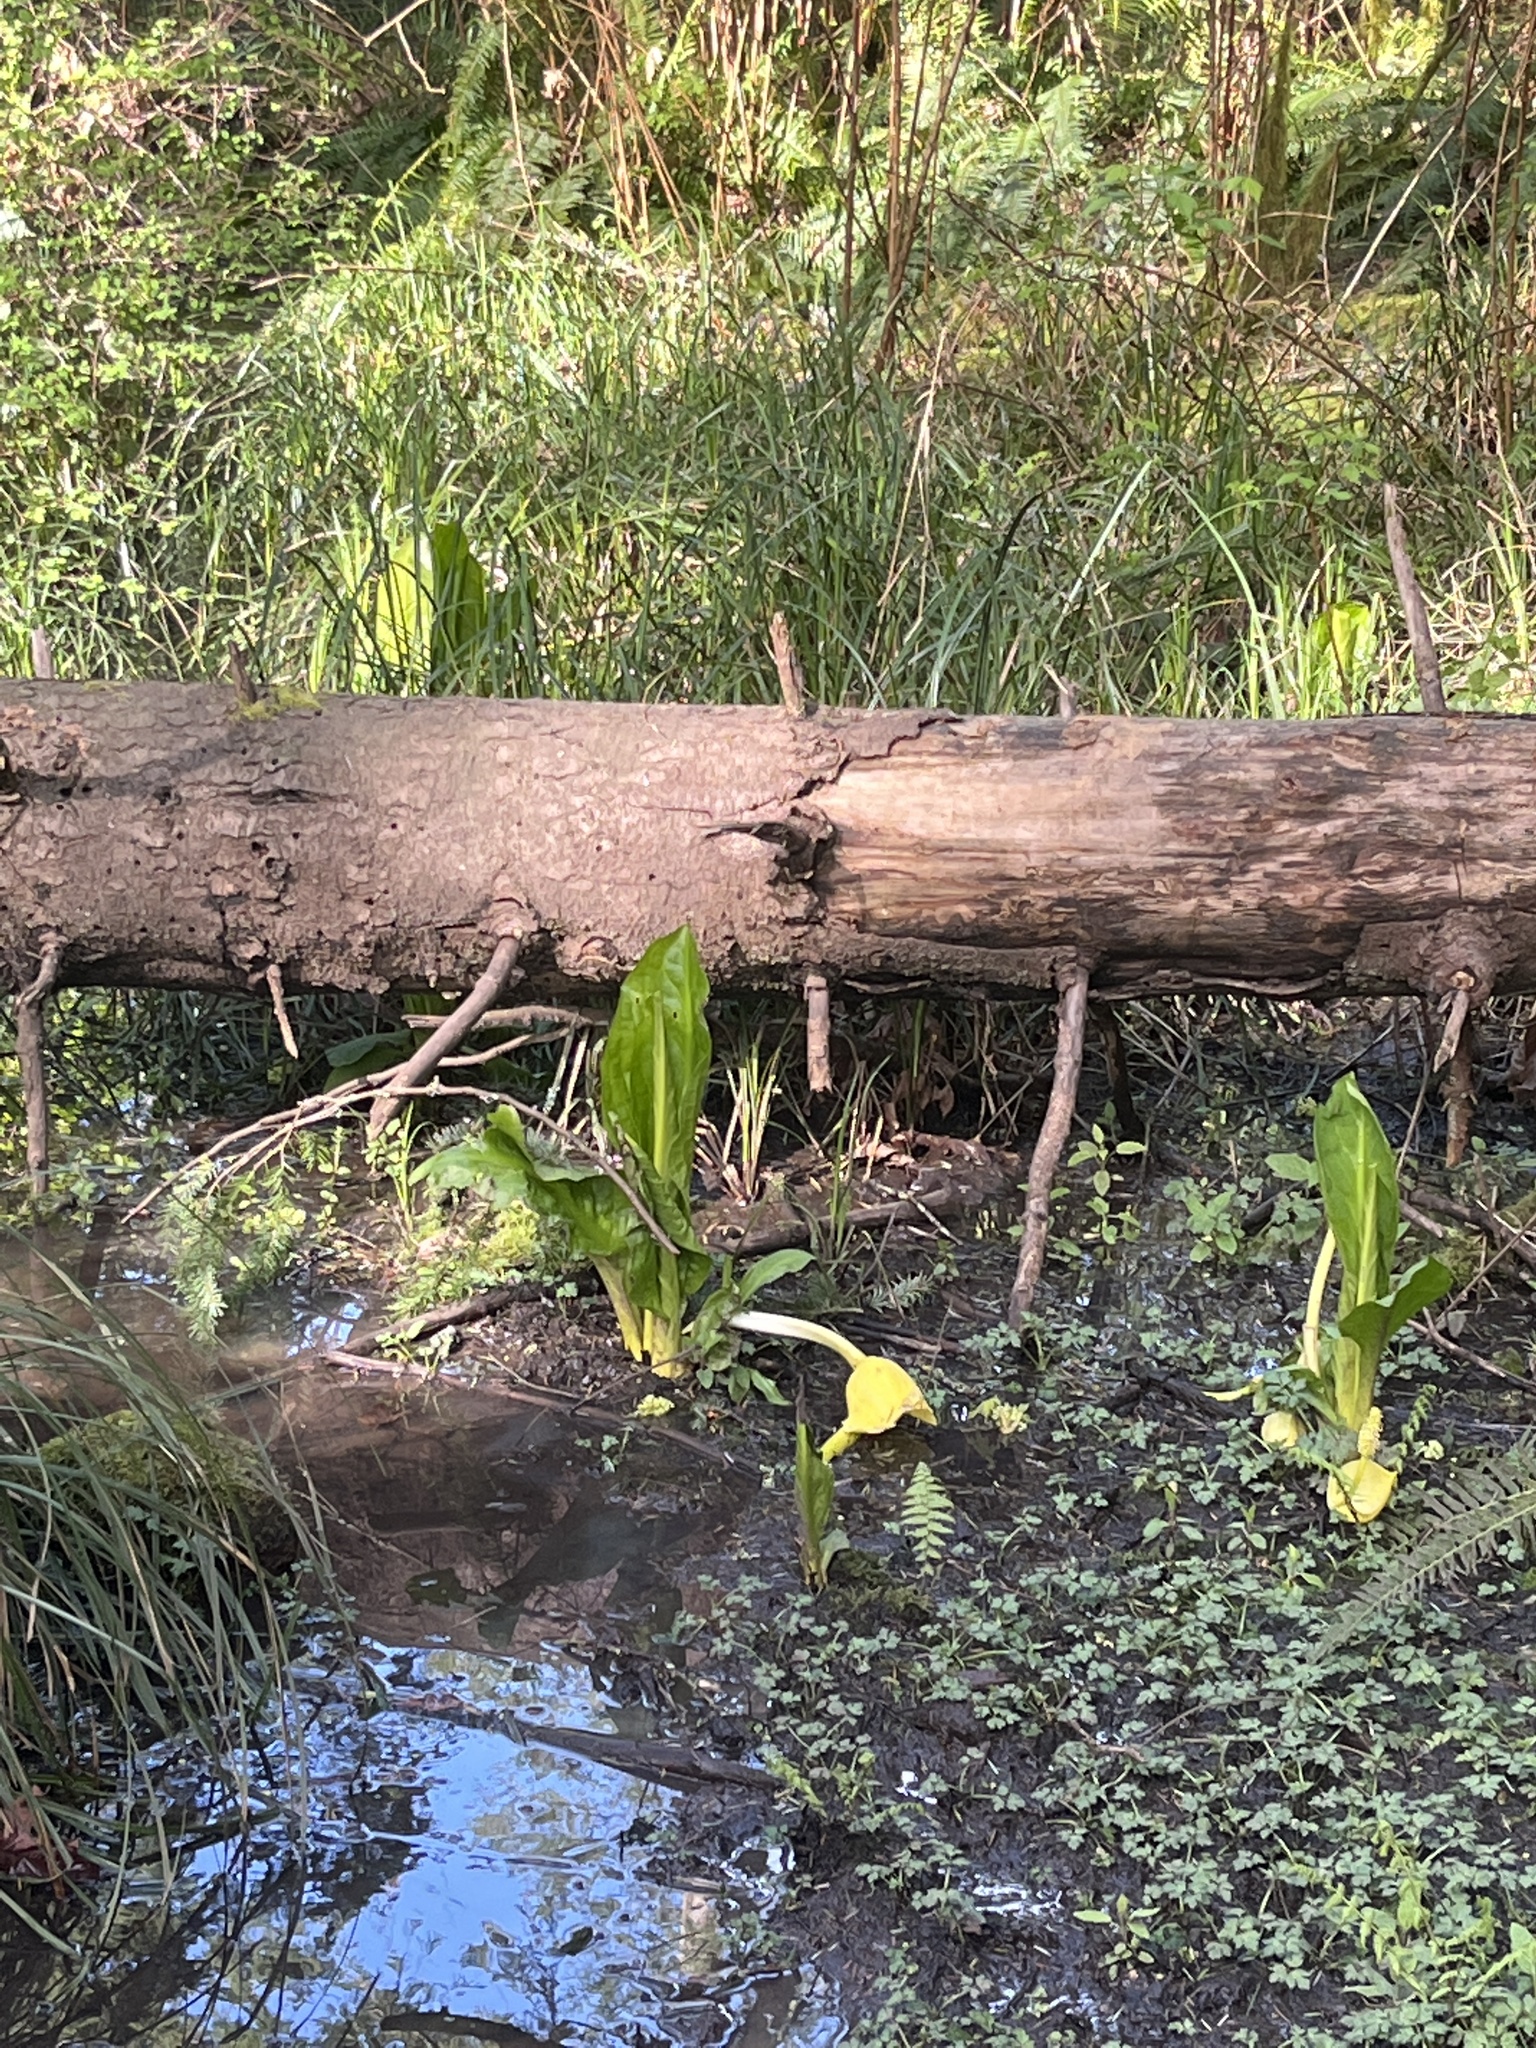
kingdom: Plantae
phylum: Tracheophyta
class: Liliopsida
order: Alismatales
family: Araceae
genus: Lysichiton
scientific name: Lysichiton americanus
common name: American skunk cabbage
